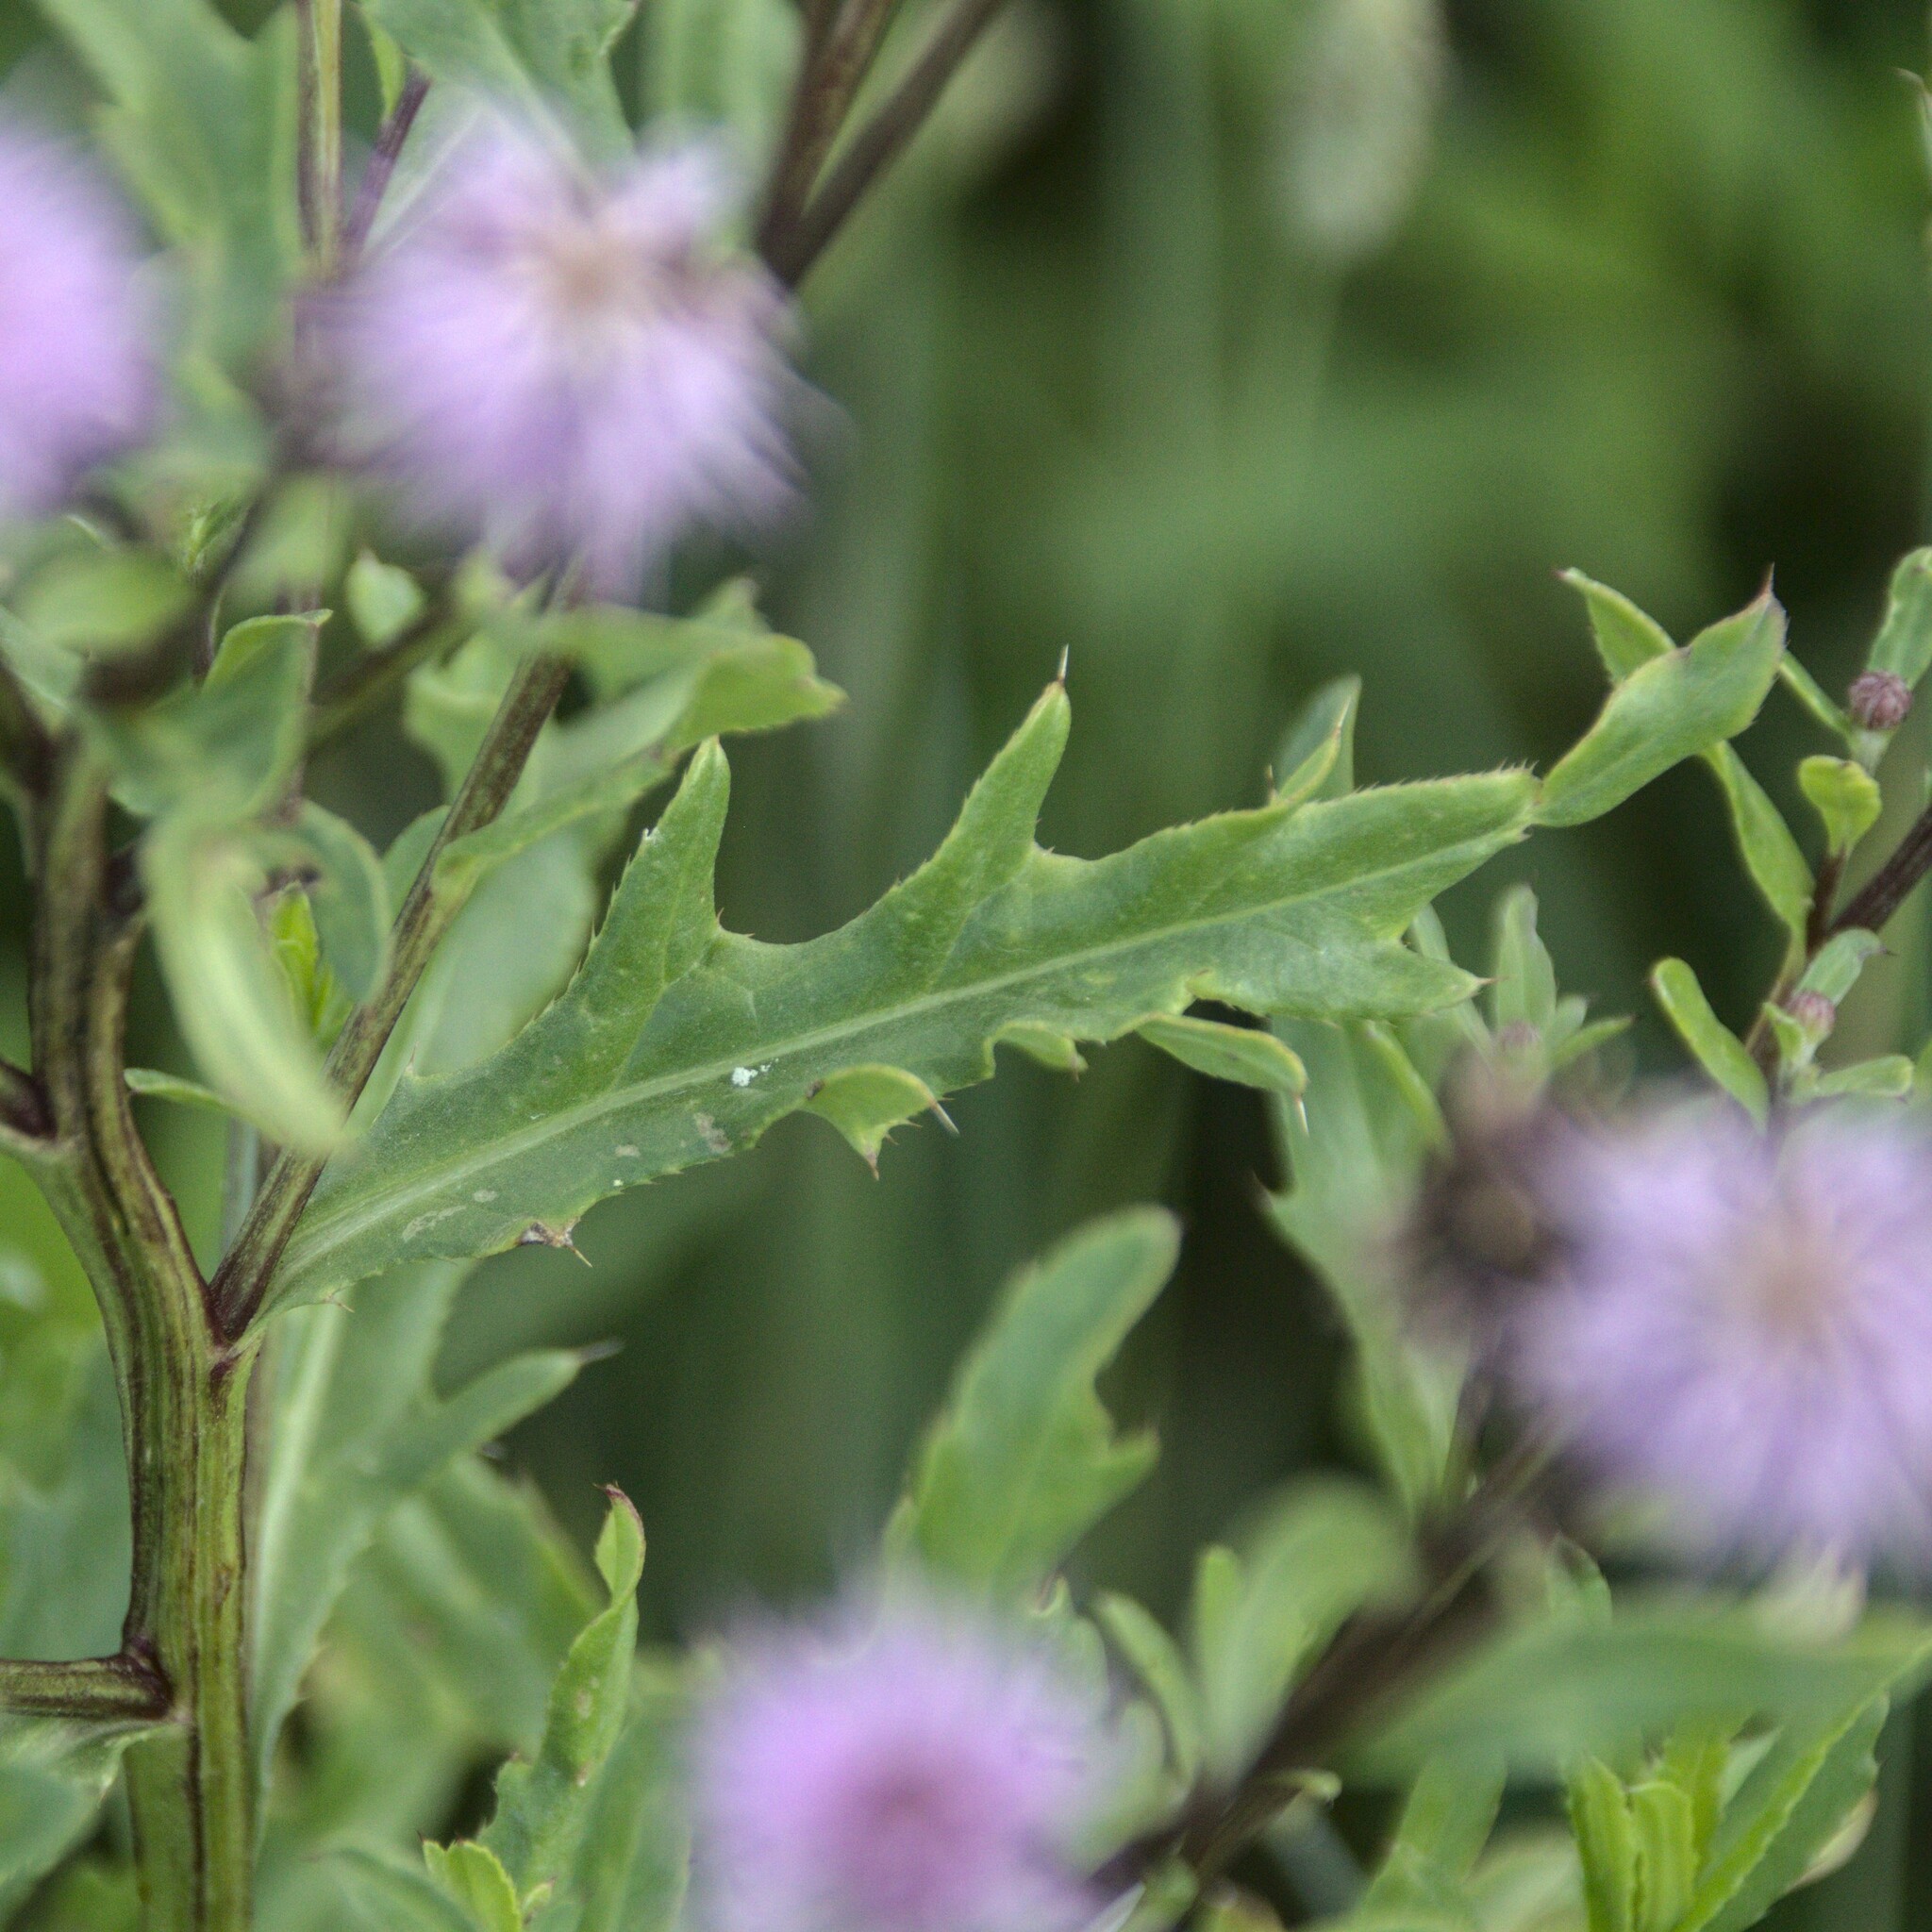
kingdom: Plantae
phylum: Tracheophyta
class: Magnoliopsida
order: Asterales
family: Asteraceae
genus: Cirsium
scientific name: Cirsium arvense
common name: Creeping thistle
